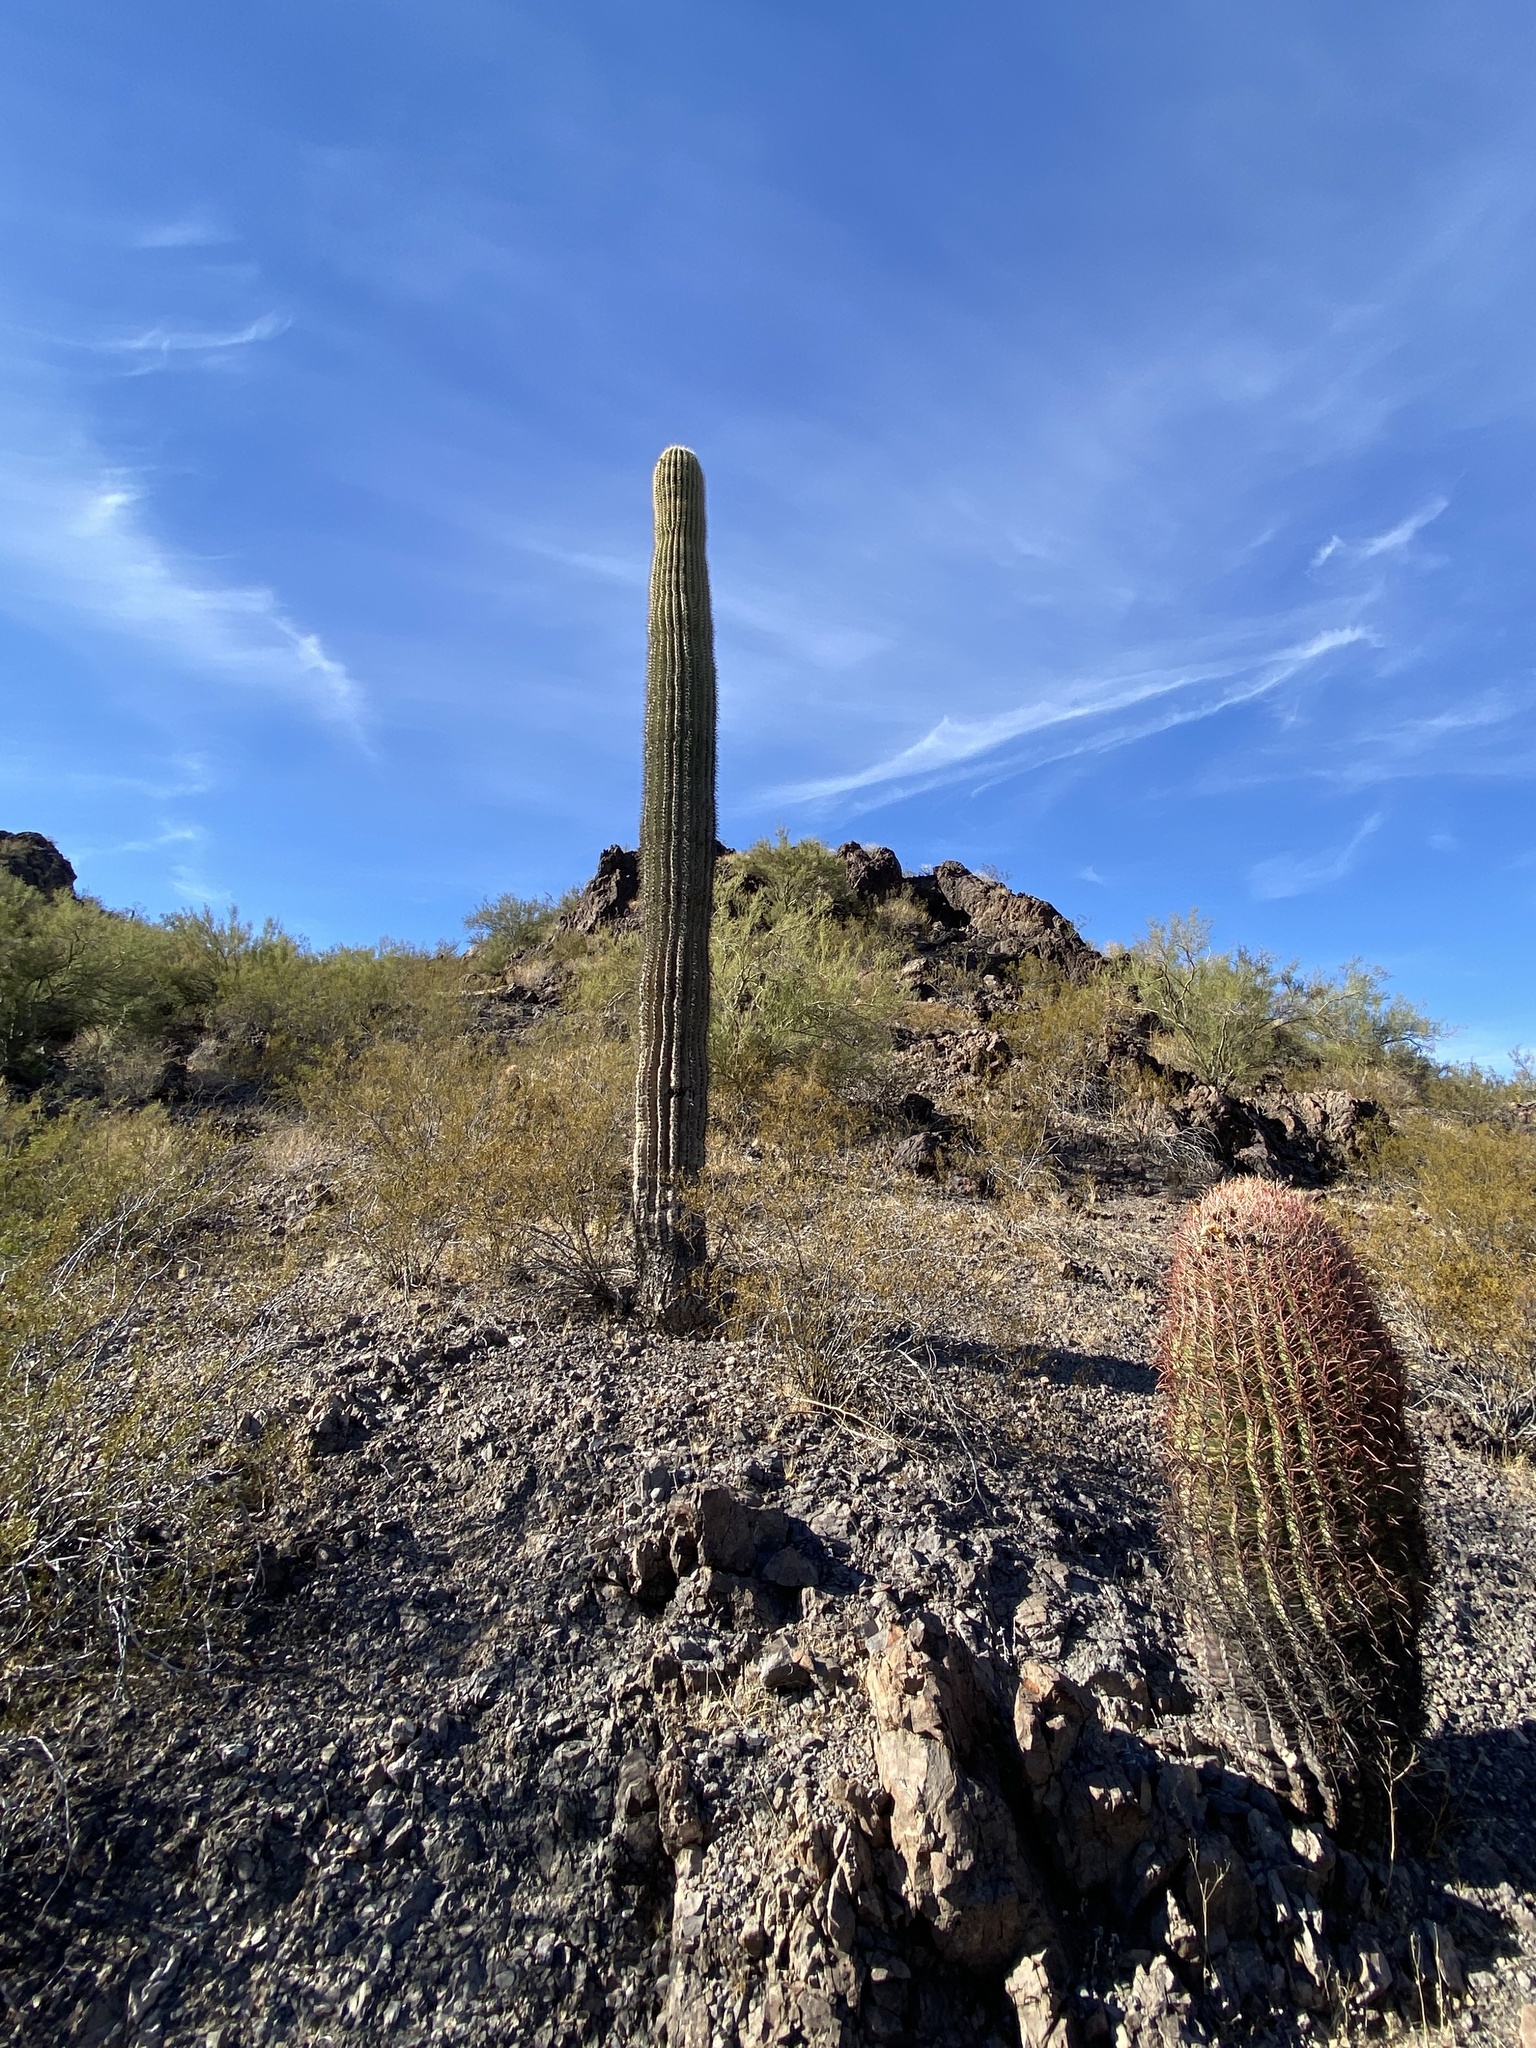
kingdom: Plantae
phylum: Tracheophyta
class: Magnoliopsida
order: Caryophyllales
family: Cactaceae
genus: Carnegiea
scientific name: Carnegiea gigantea
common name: Saguaro
